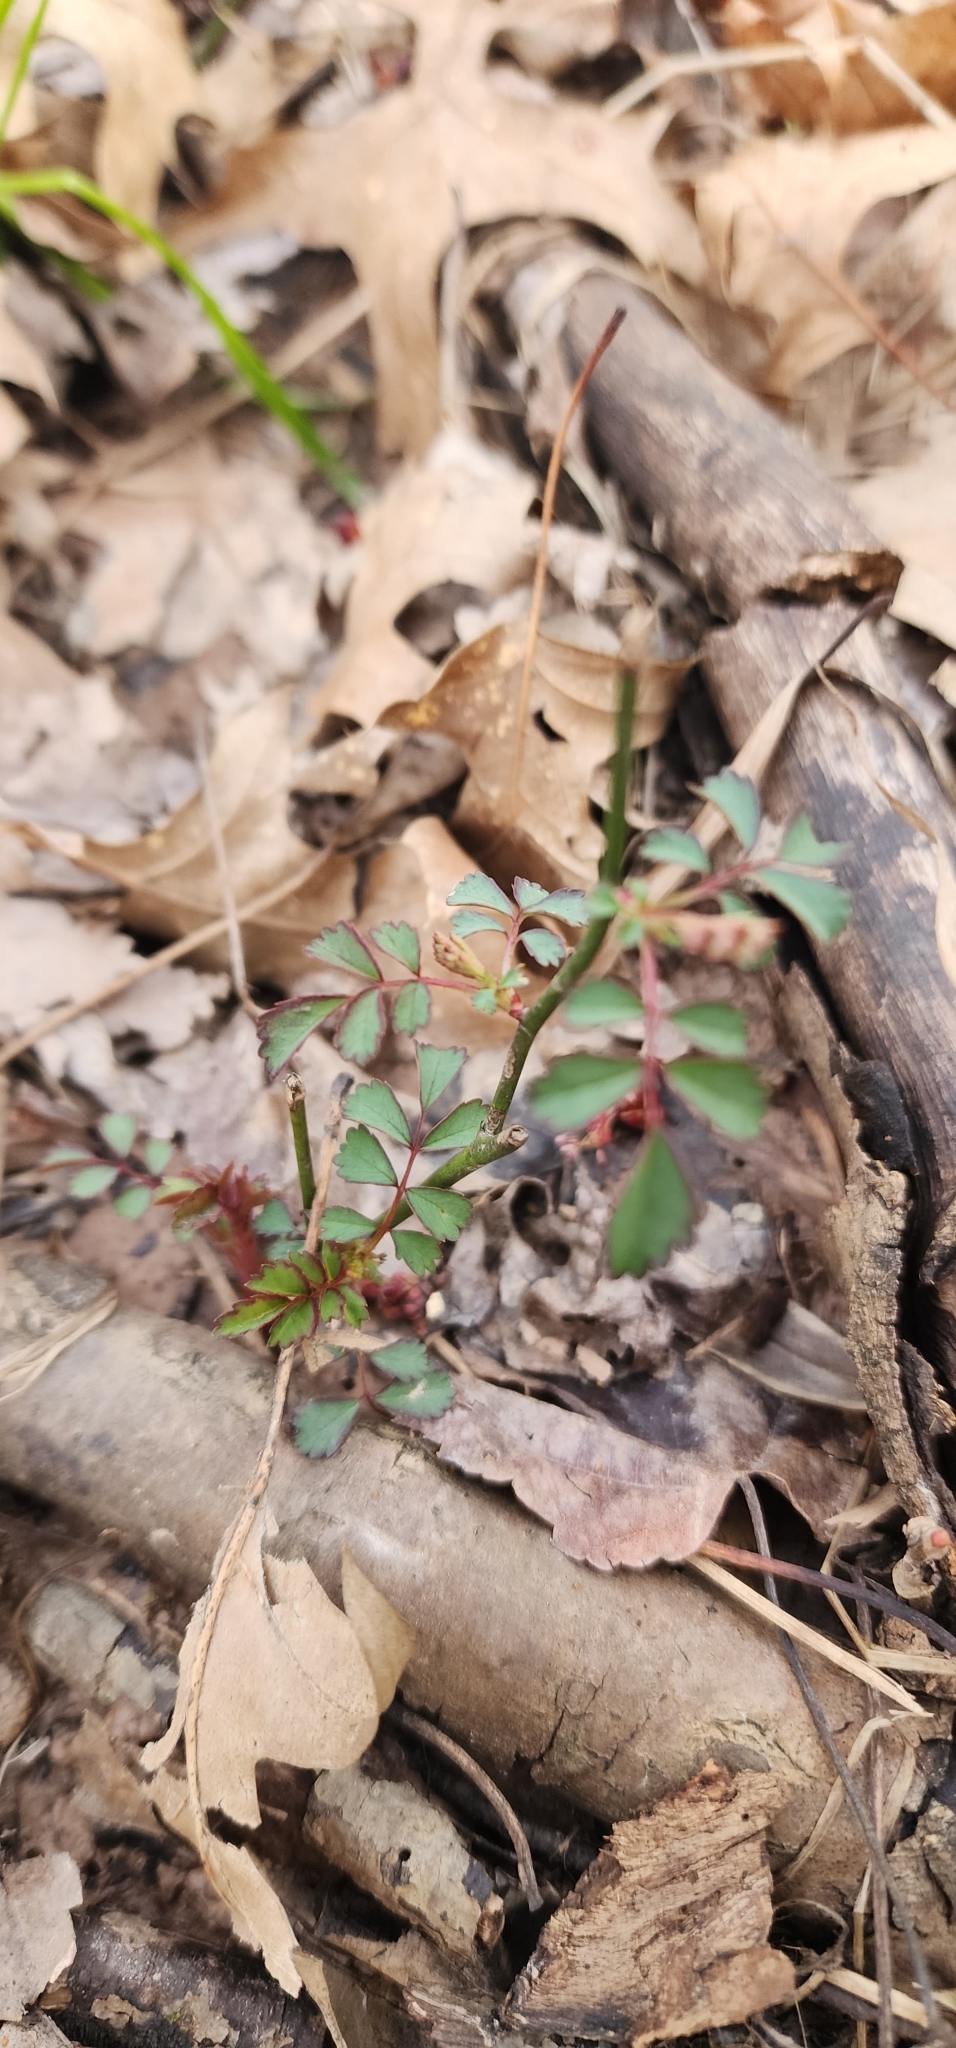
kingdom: Plantae
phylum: Tracheophyta
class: Magnoliopsida
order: Rosales
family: Rosaceae
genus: Rosa
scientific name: Rosa multiflora
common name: Multiflora rose
